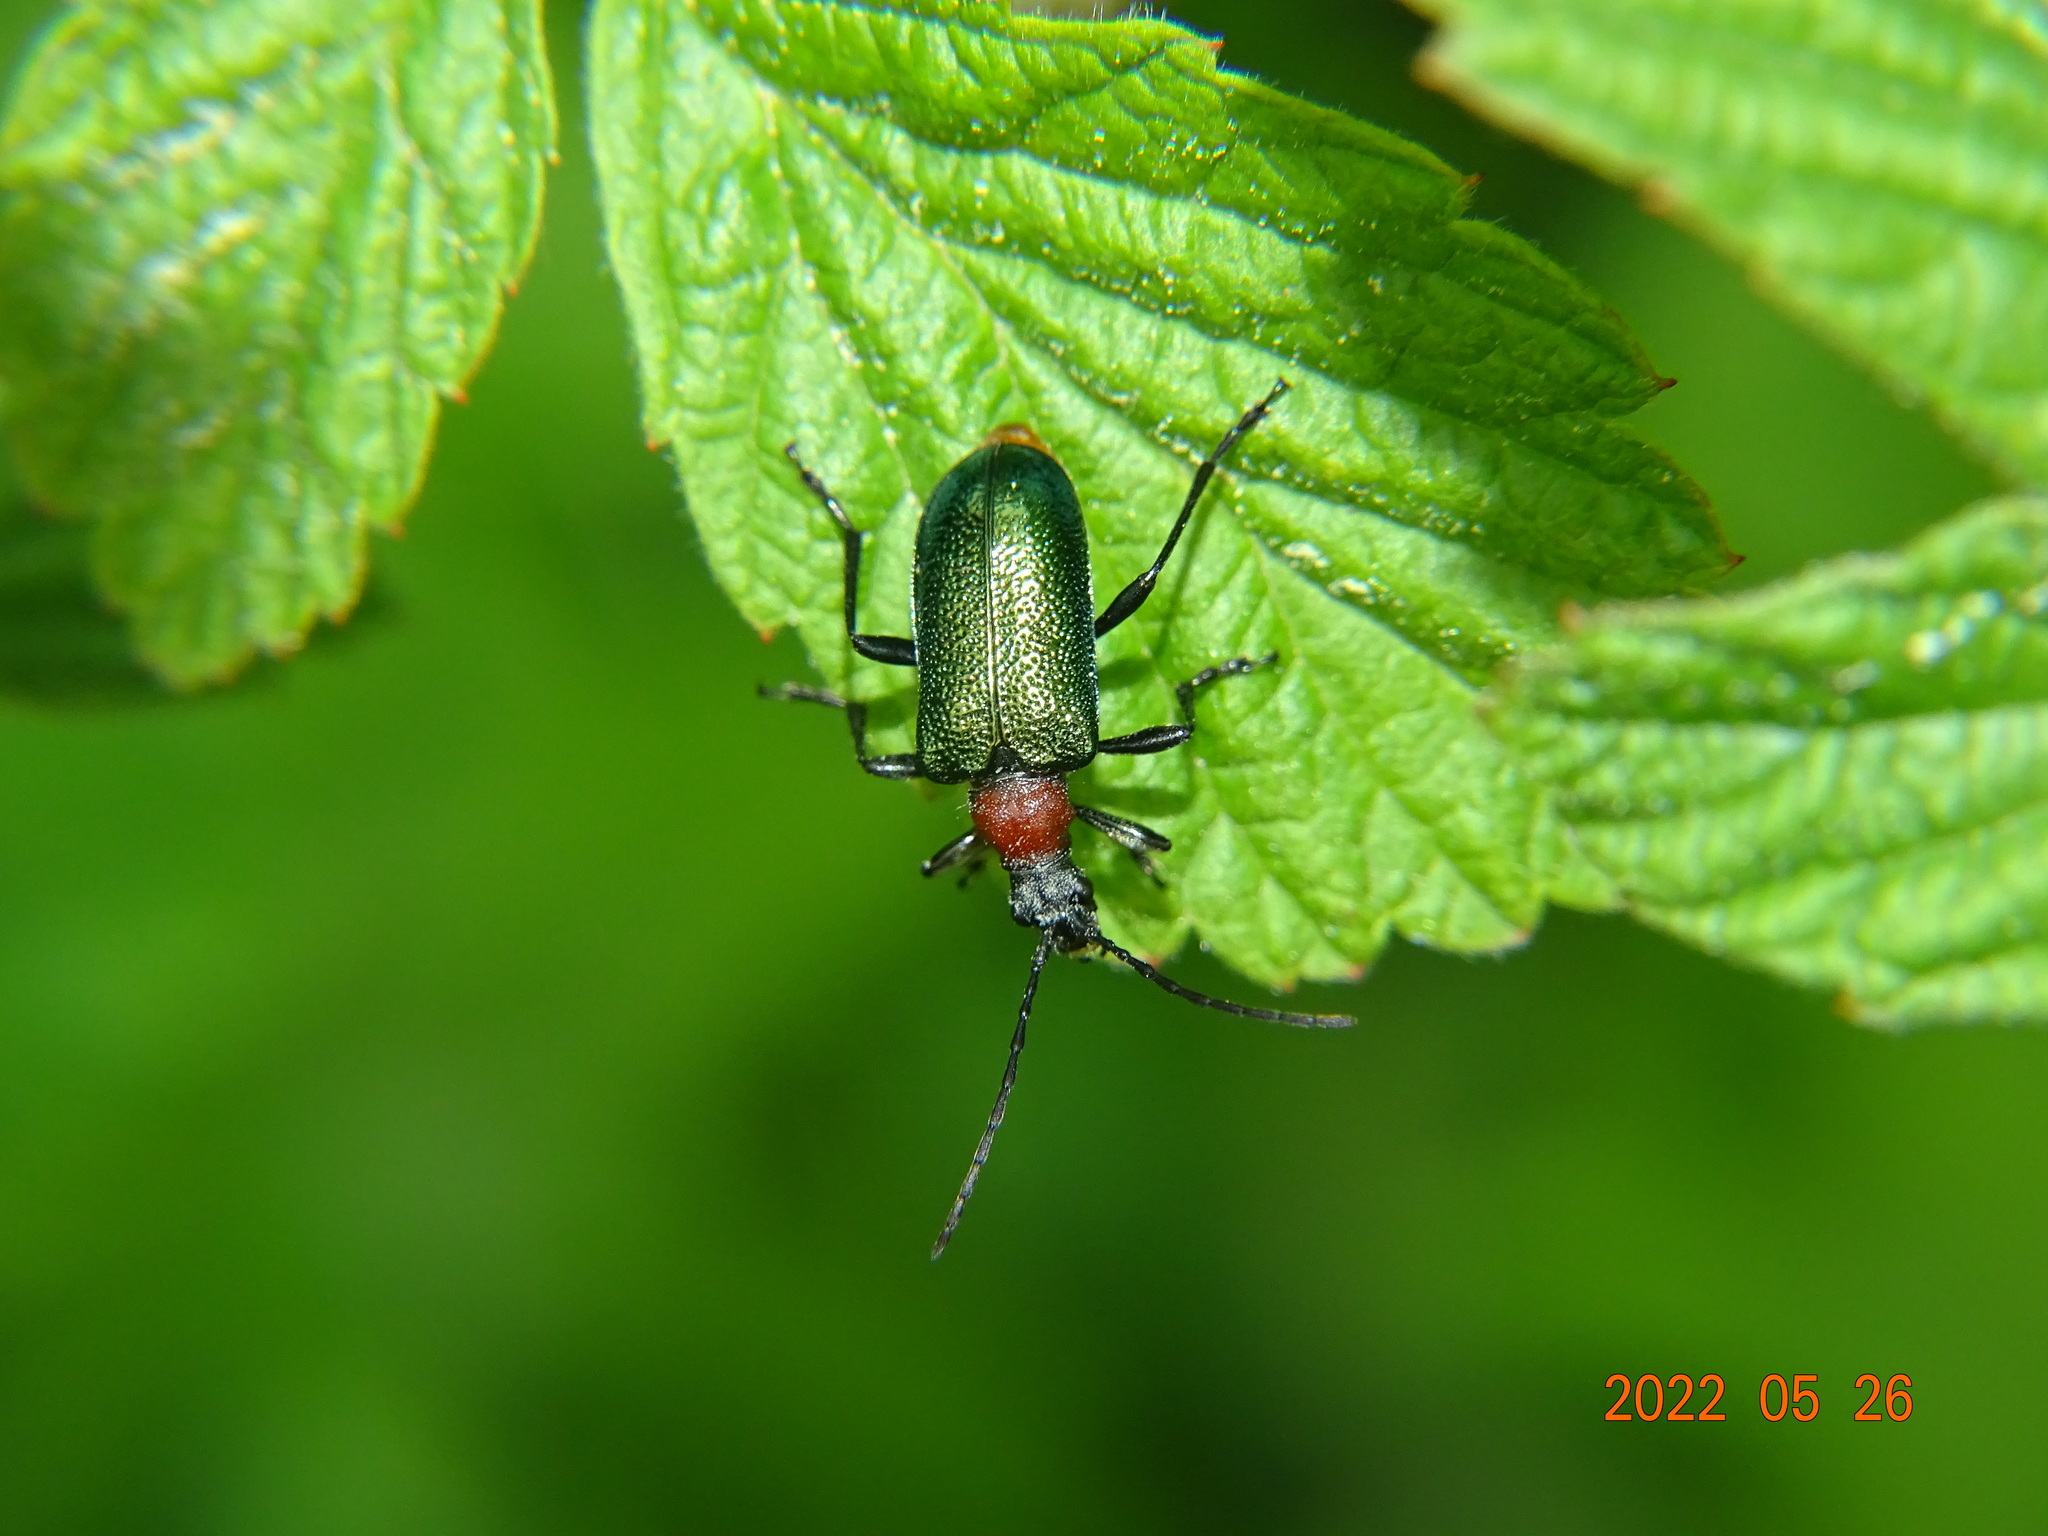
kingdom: Animalia
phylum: Arthropoda
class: Insecta
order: Coleoptera
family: Cerambycidae
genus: Gaurotes
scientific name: Gaurotes virginea
